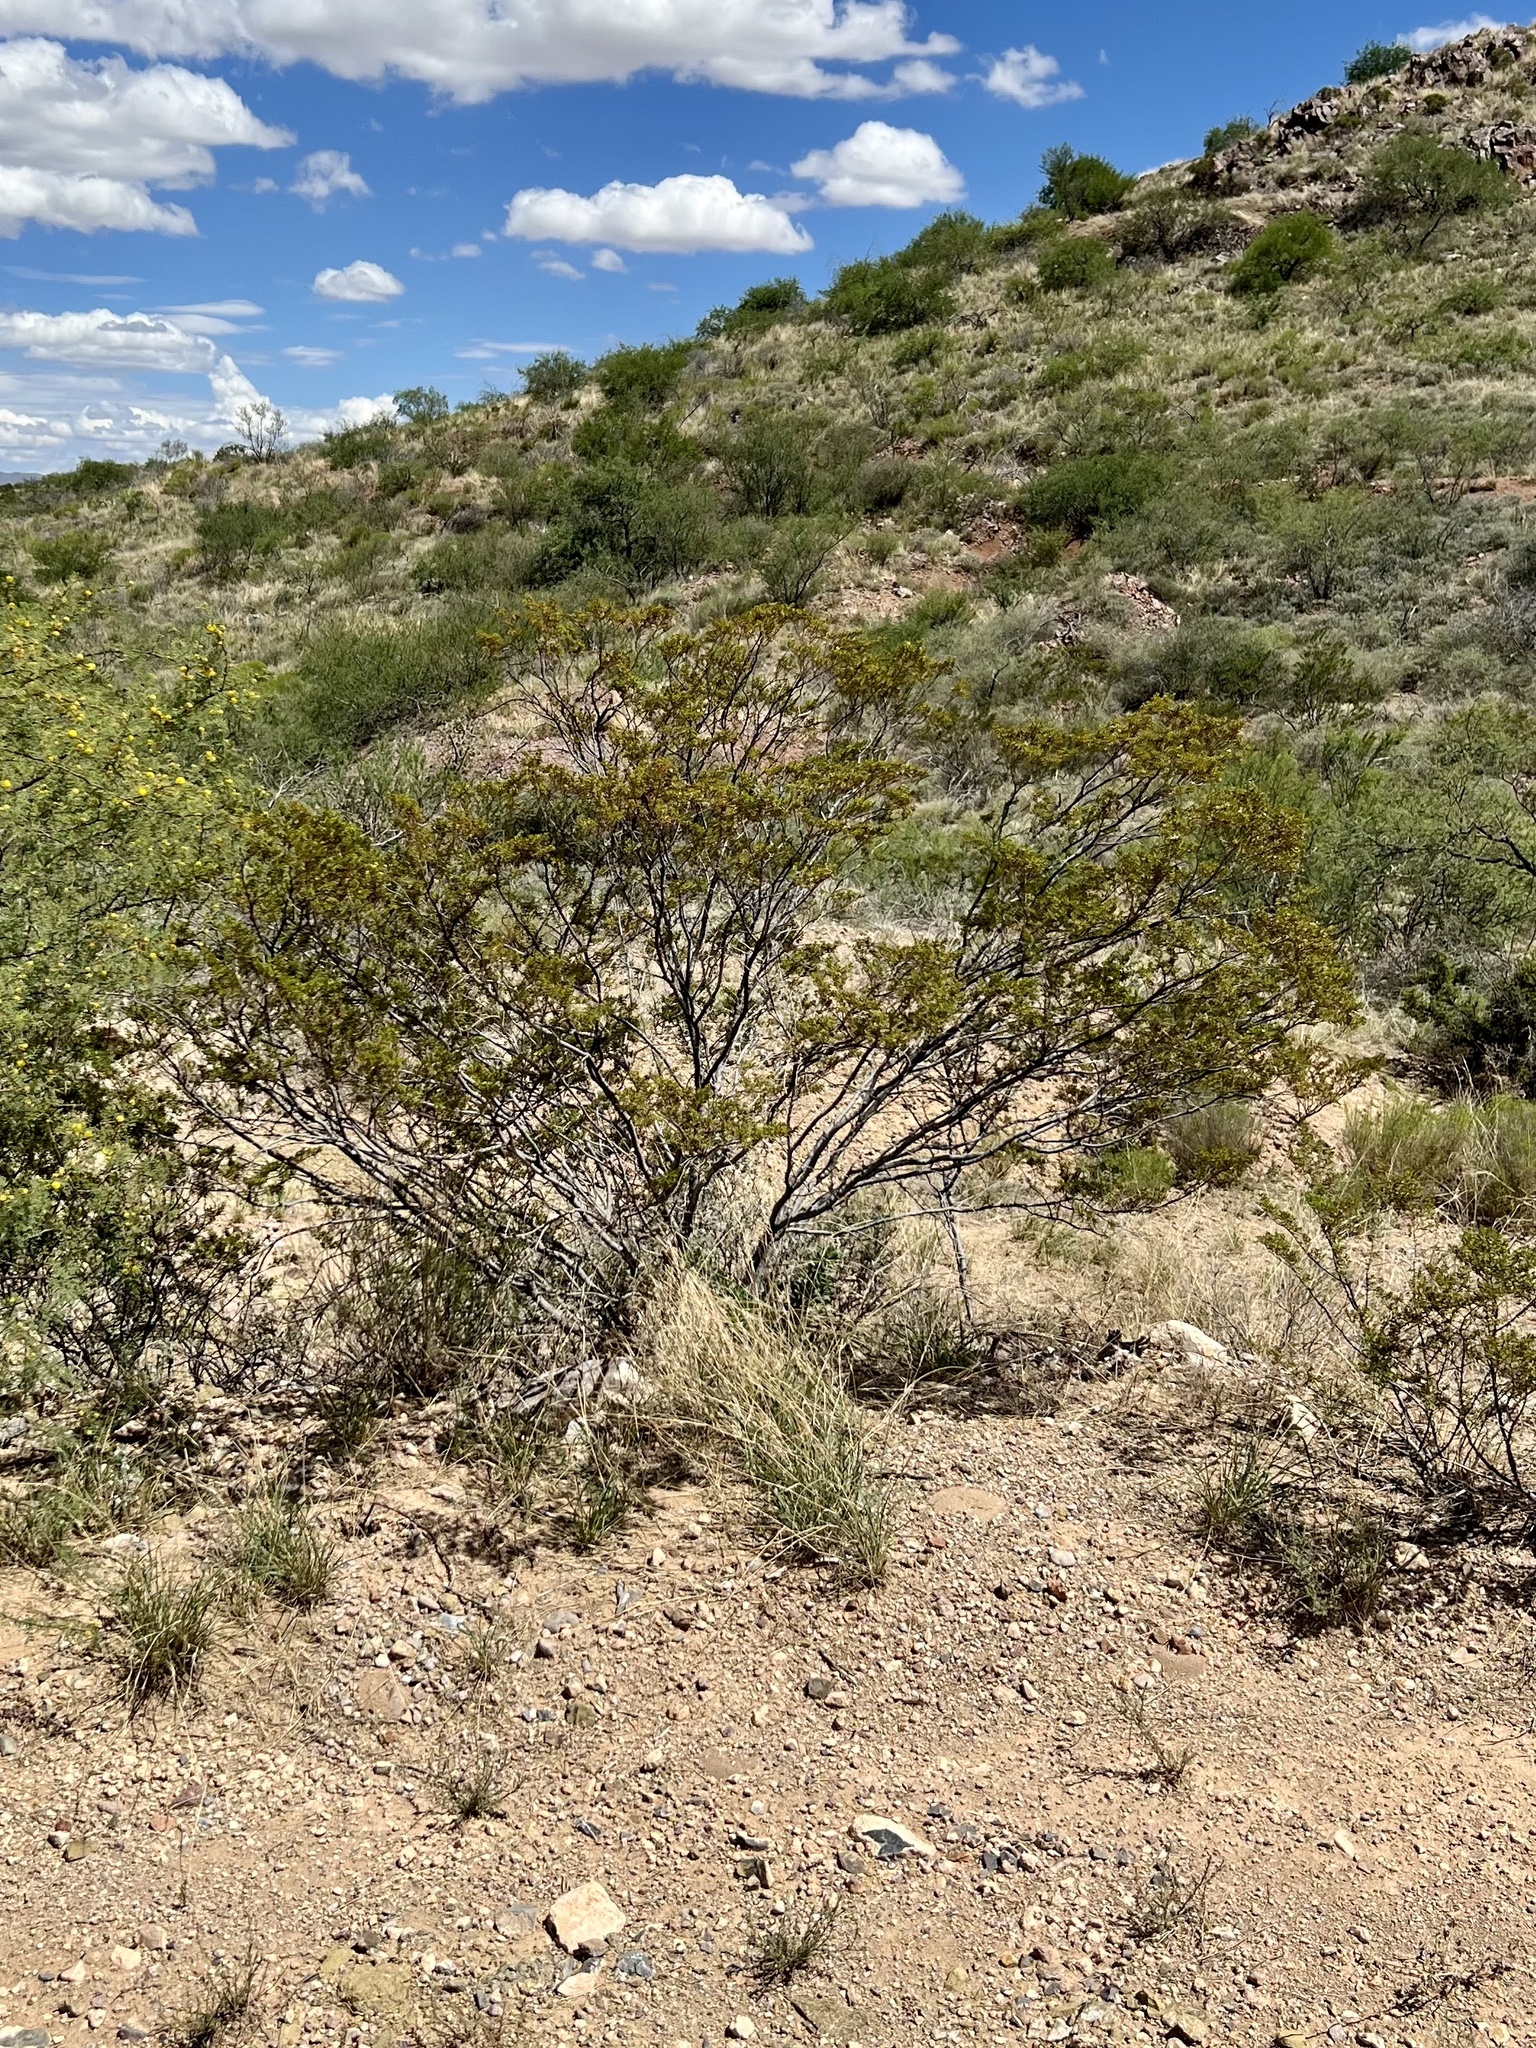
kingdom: Plantae
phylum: Tracheophyta
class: Magnoliopsida
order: Zygophyllales
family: Zygophyllaceae
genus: Larrea
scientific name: Larrea tridentata
